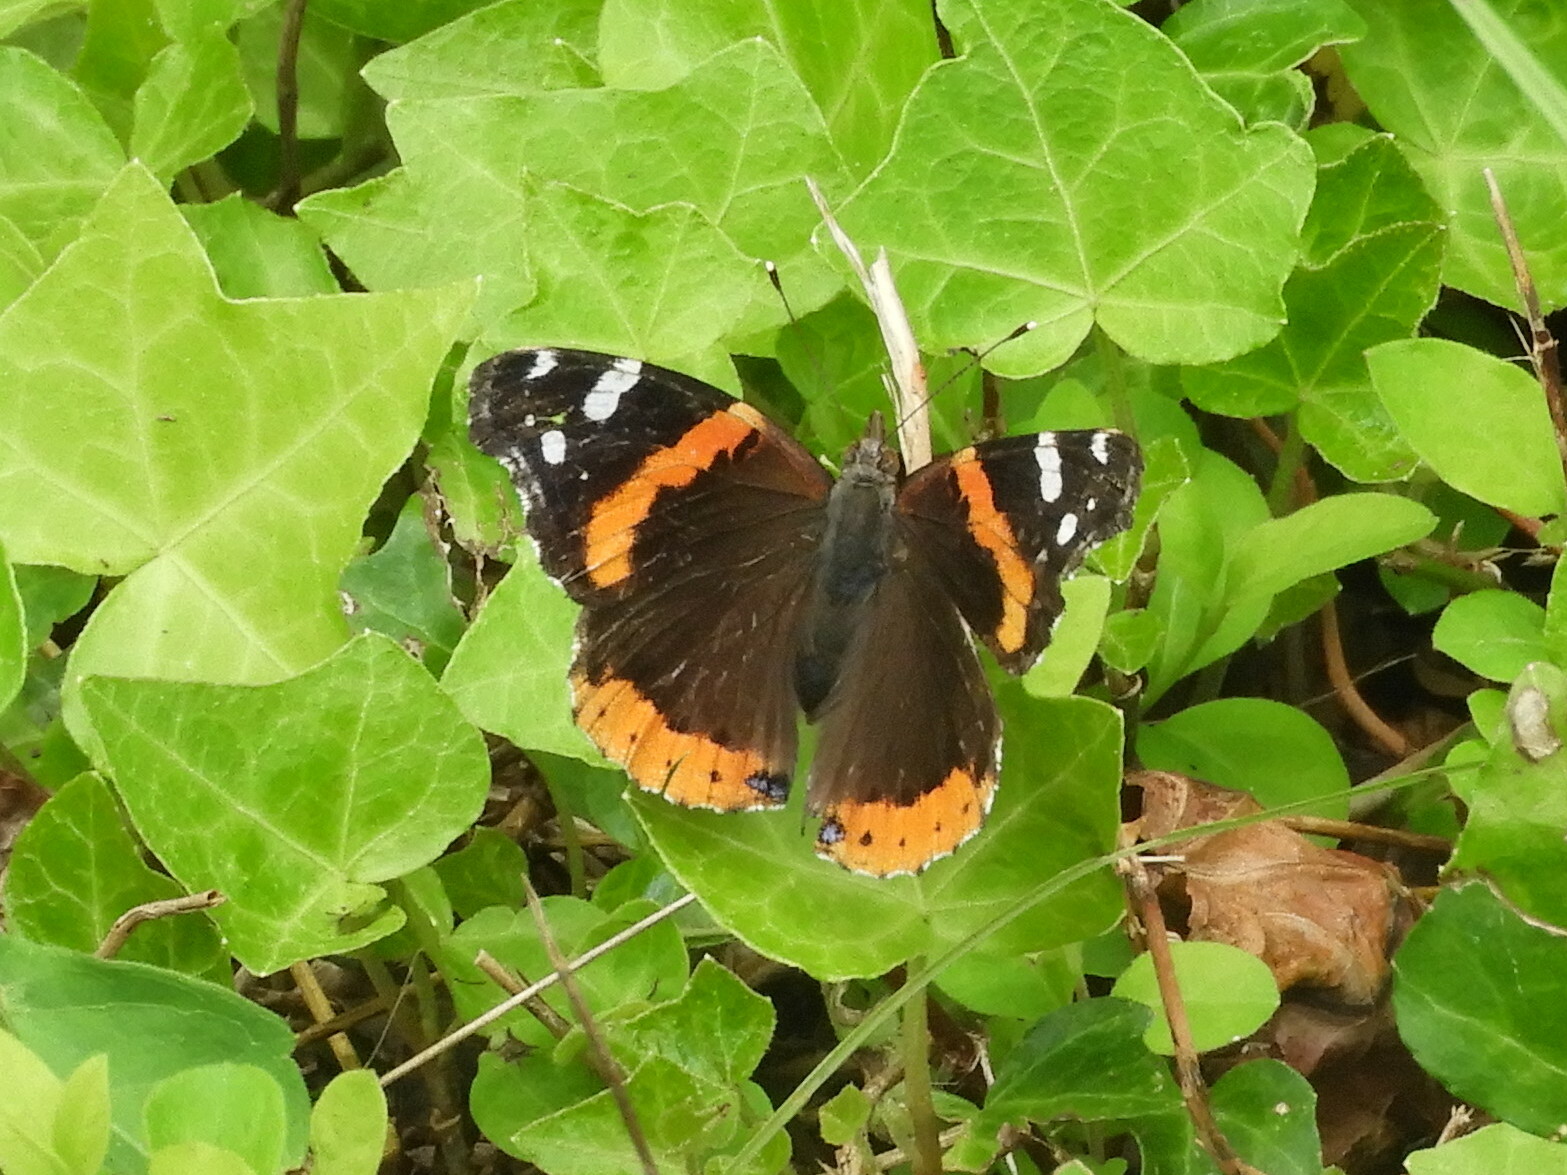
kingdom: Animalia
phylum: Arthropoda
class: Insecta
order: Lepidoptera
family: Nymphalidae
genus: Vanessa
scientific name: Vanessa atalanta
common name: Red admiral
